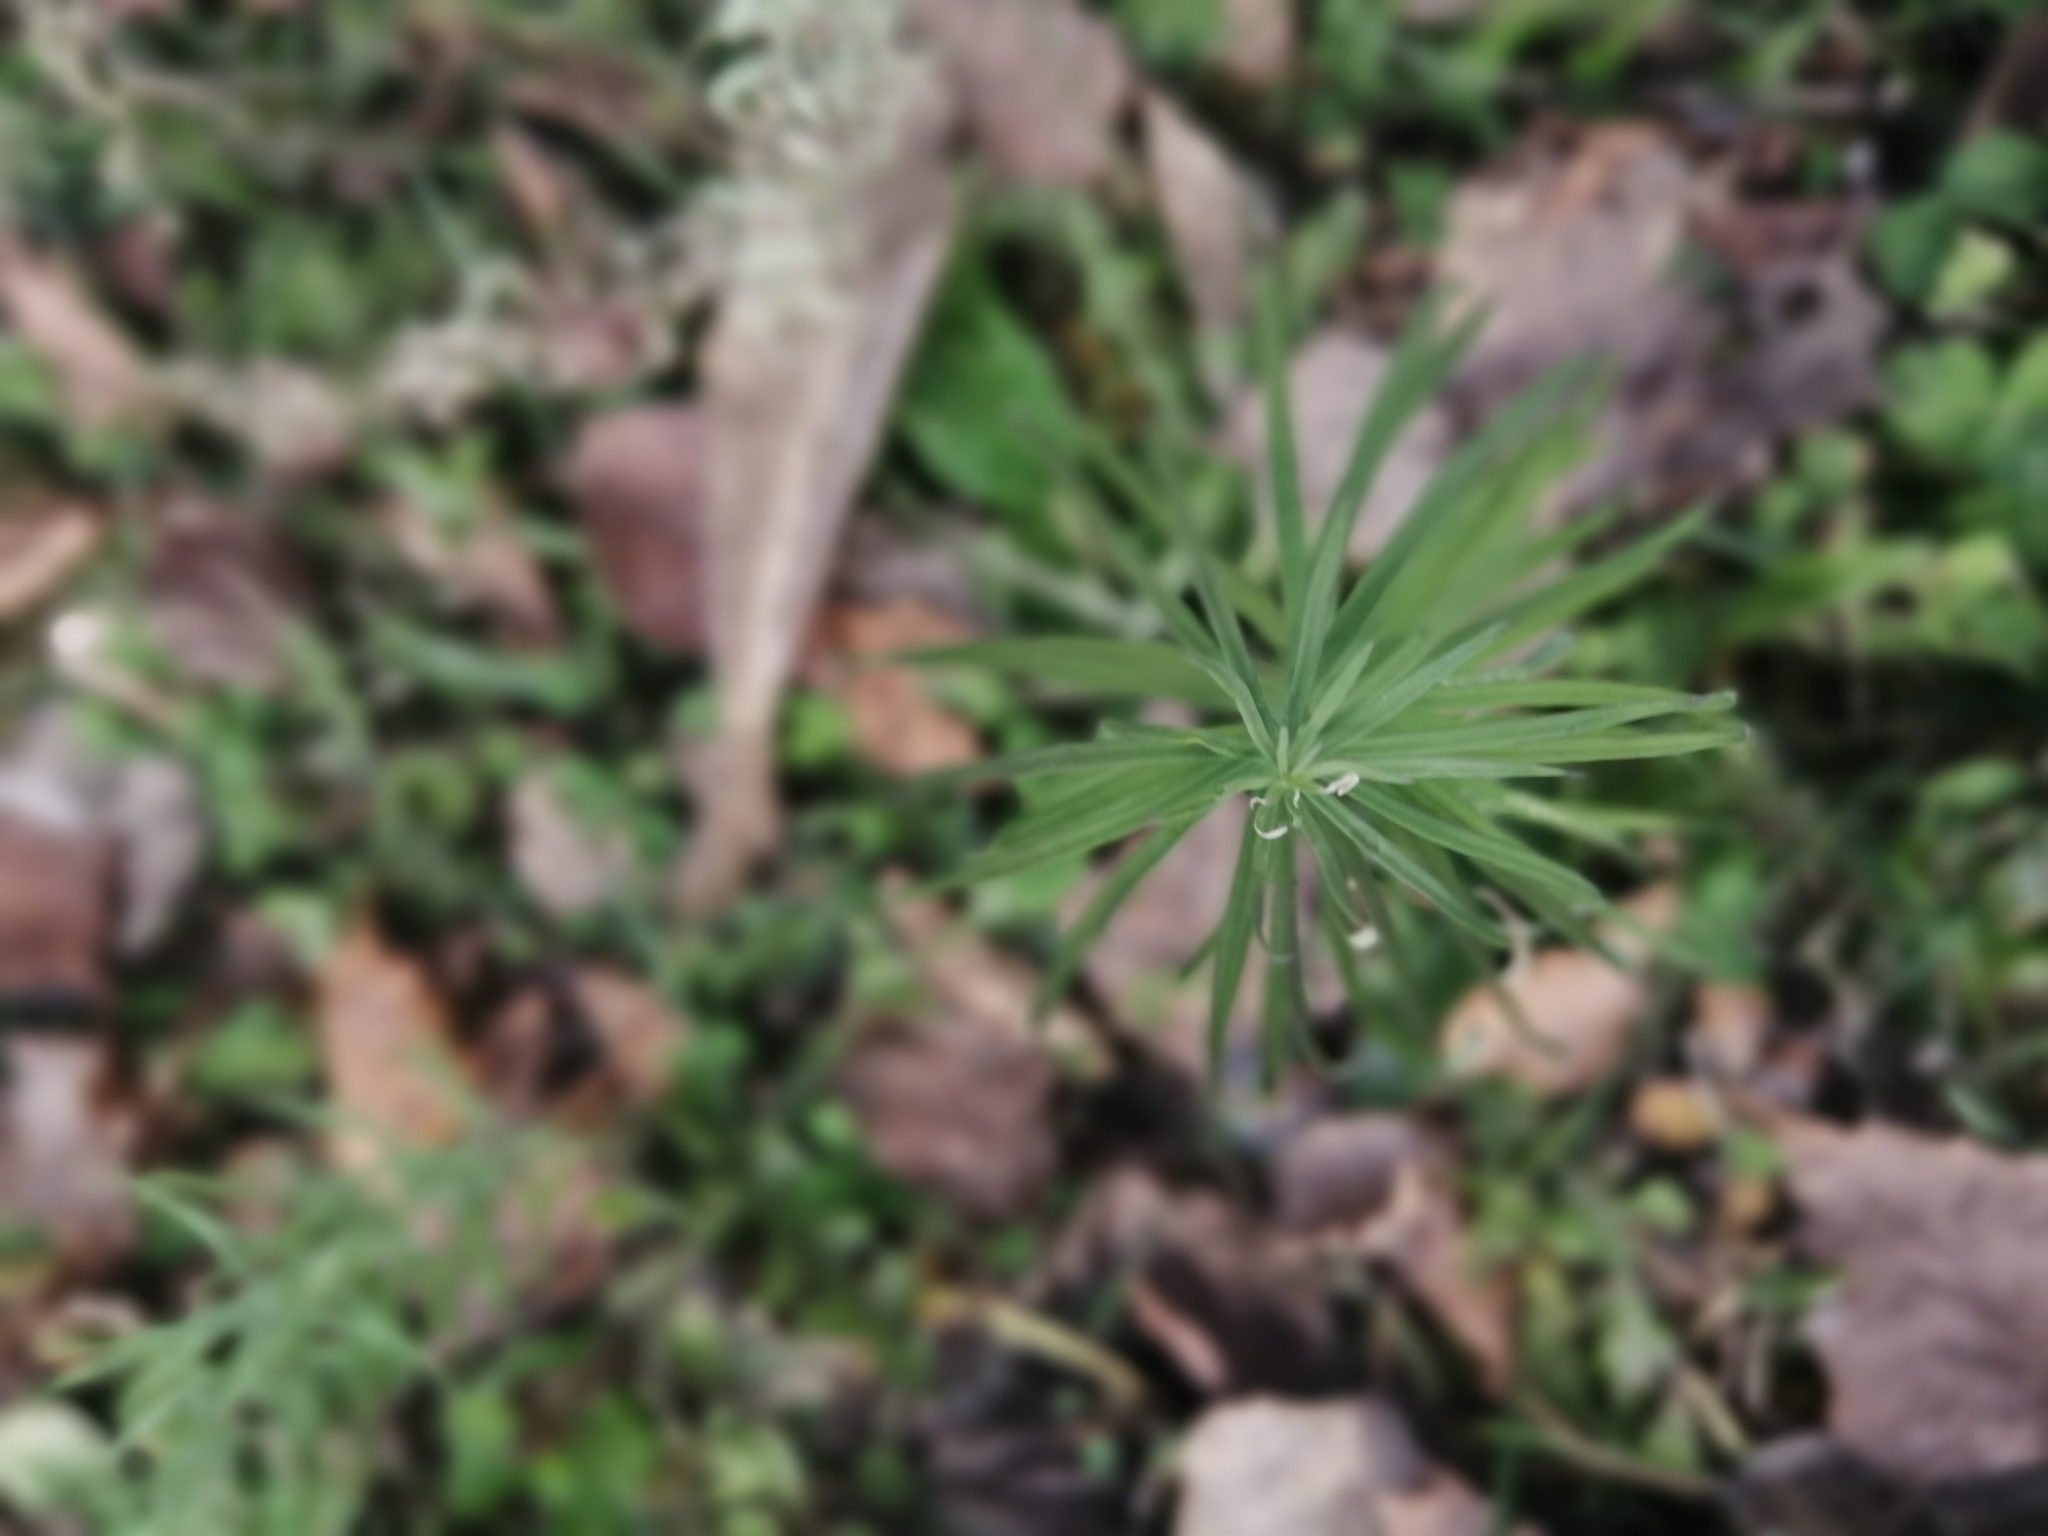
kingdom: Plantae
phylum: Tracheophyta
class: Magnoliopsida
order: Lamiales
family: Plantaginaceae
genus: Linaria
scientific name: Linaria vulgaris
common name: Butter and eggs
